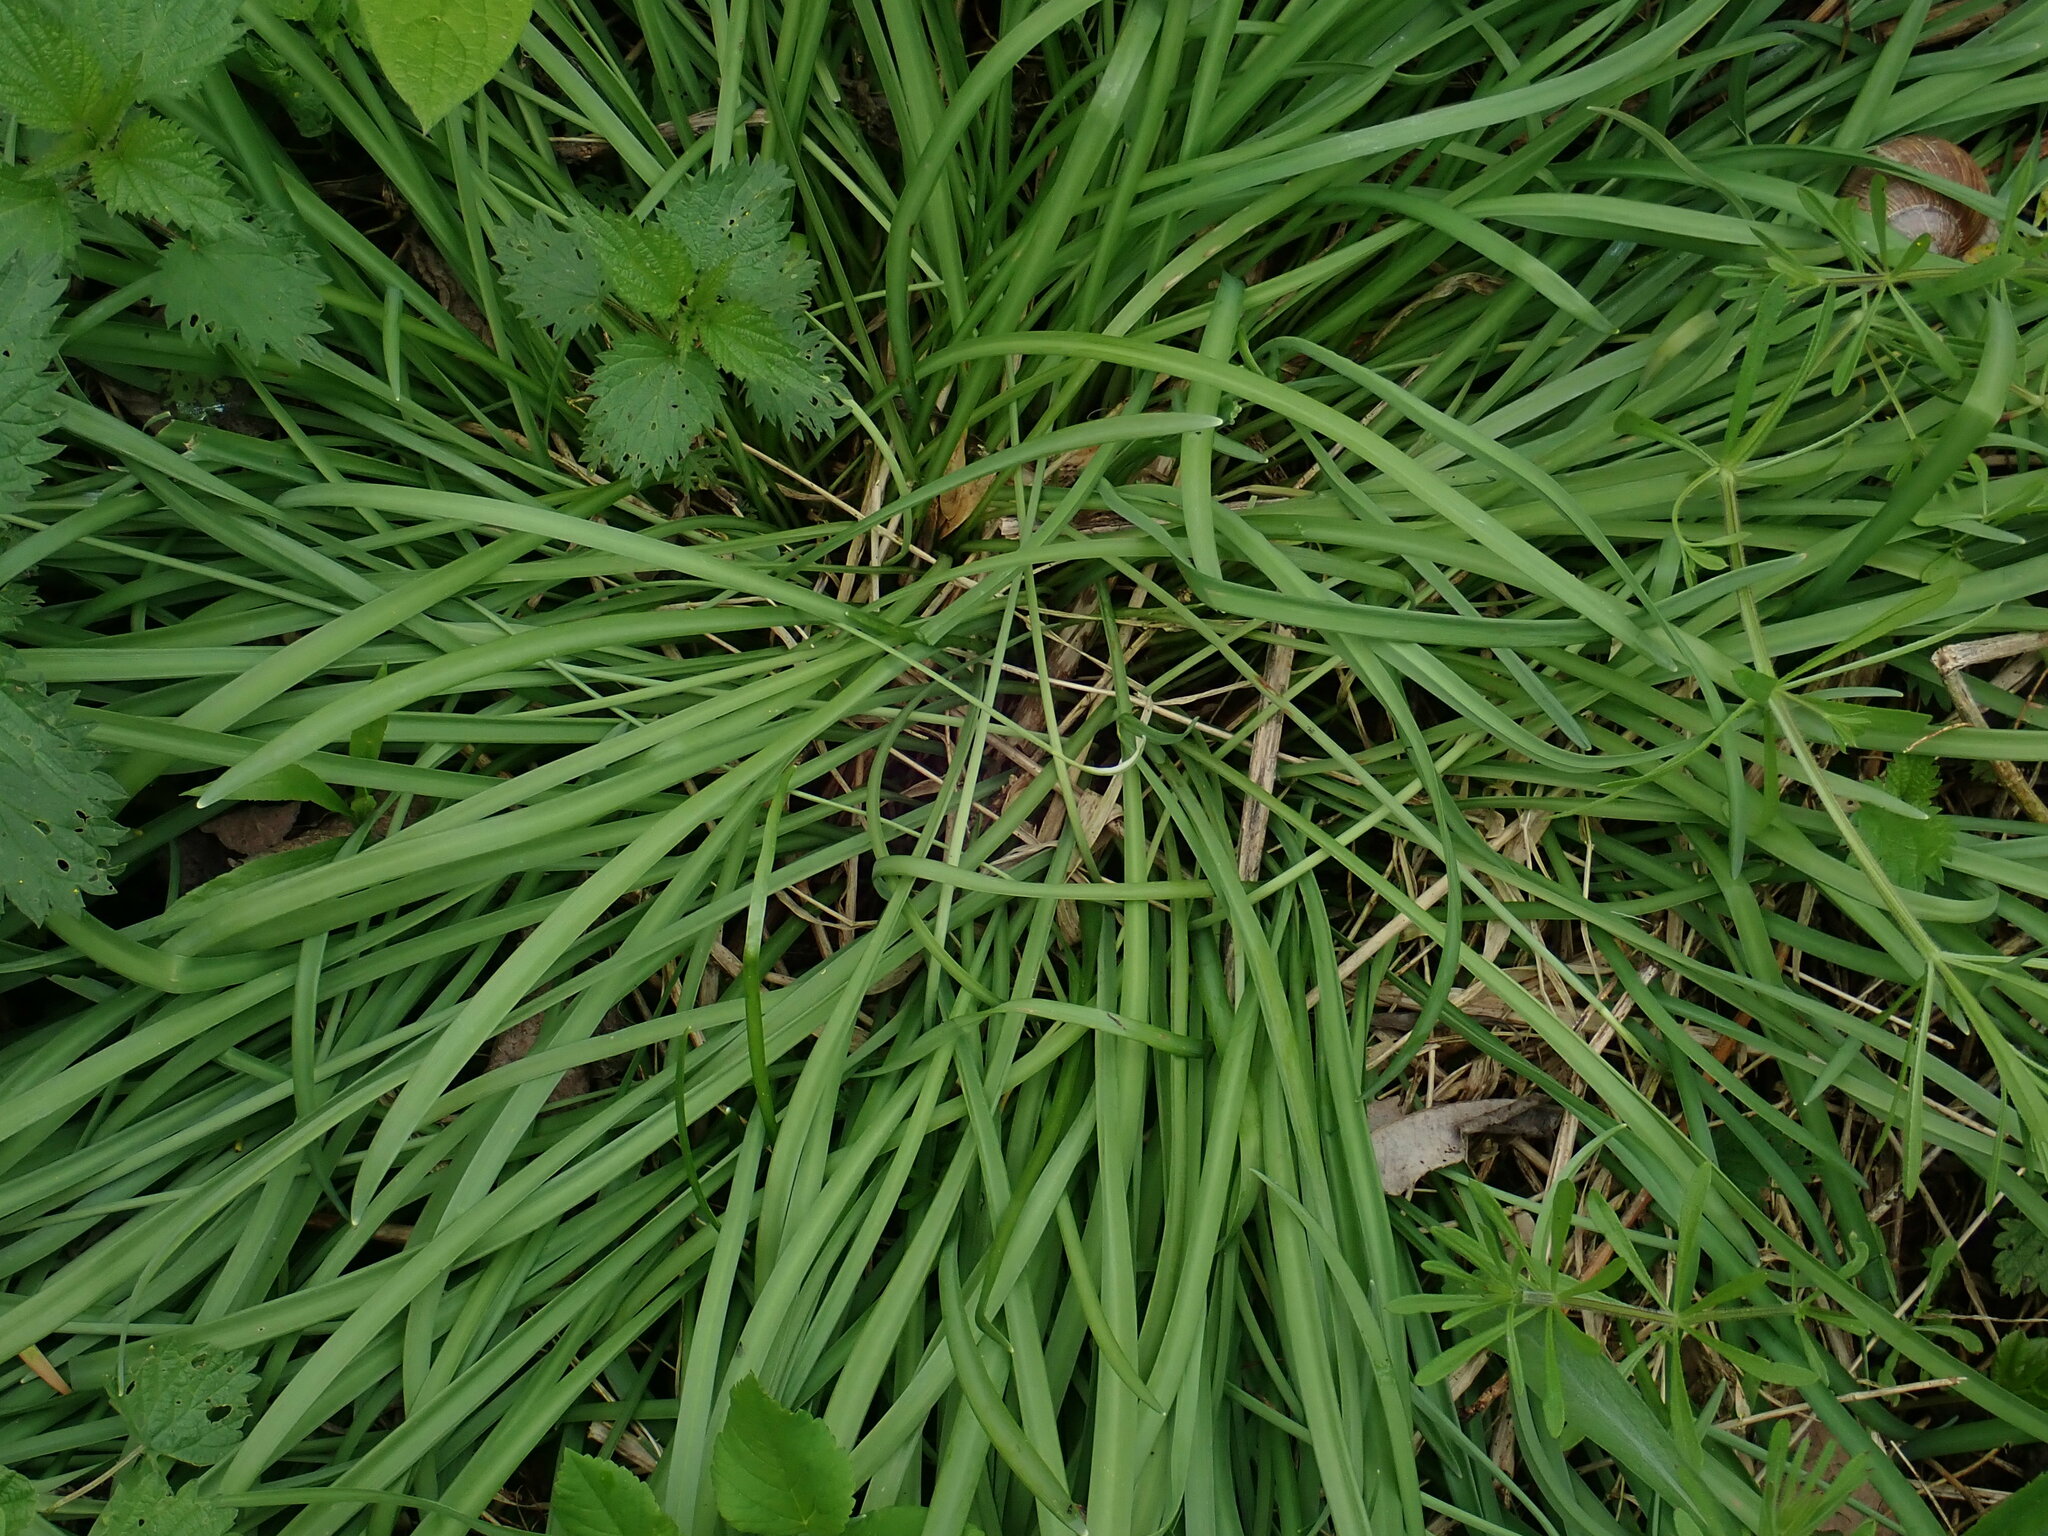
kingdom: Plantae
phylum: Tracheophyta
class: Liliopsida
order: Asparagales
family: Amaryllidaceae
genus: Galanthus
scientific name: Galanthus nivalis
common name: Snowdrop
